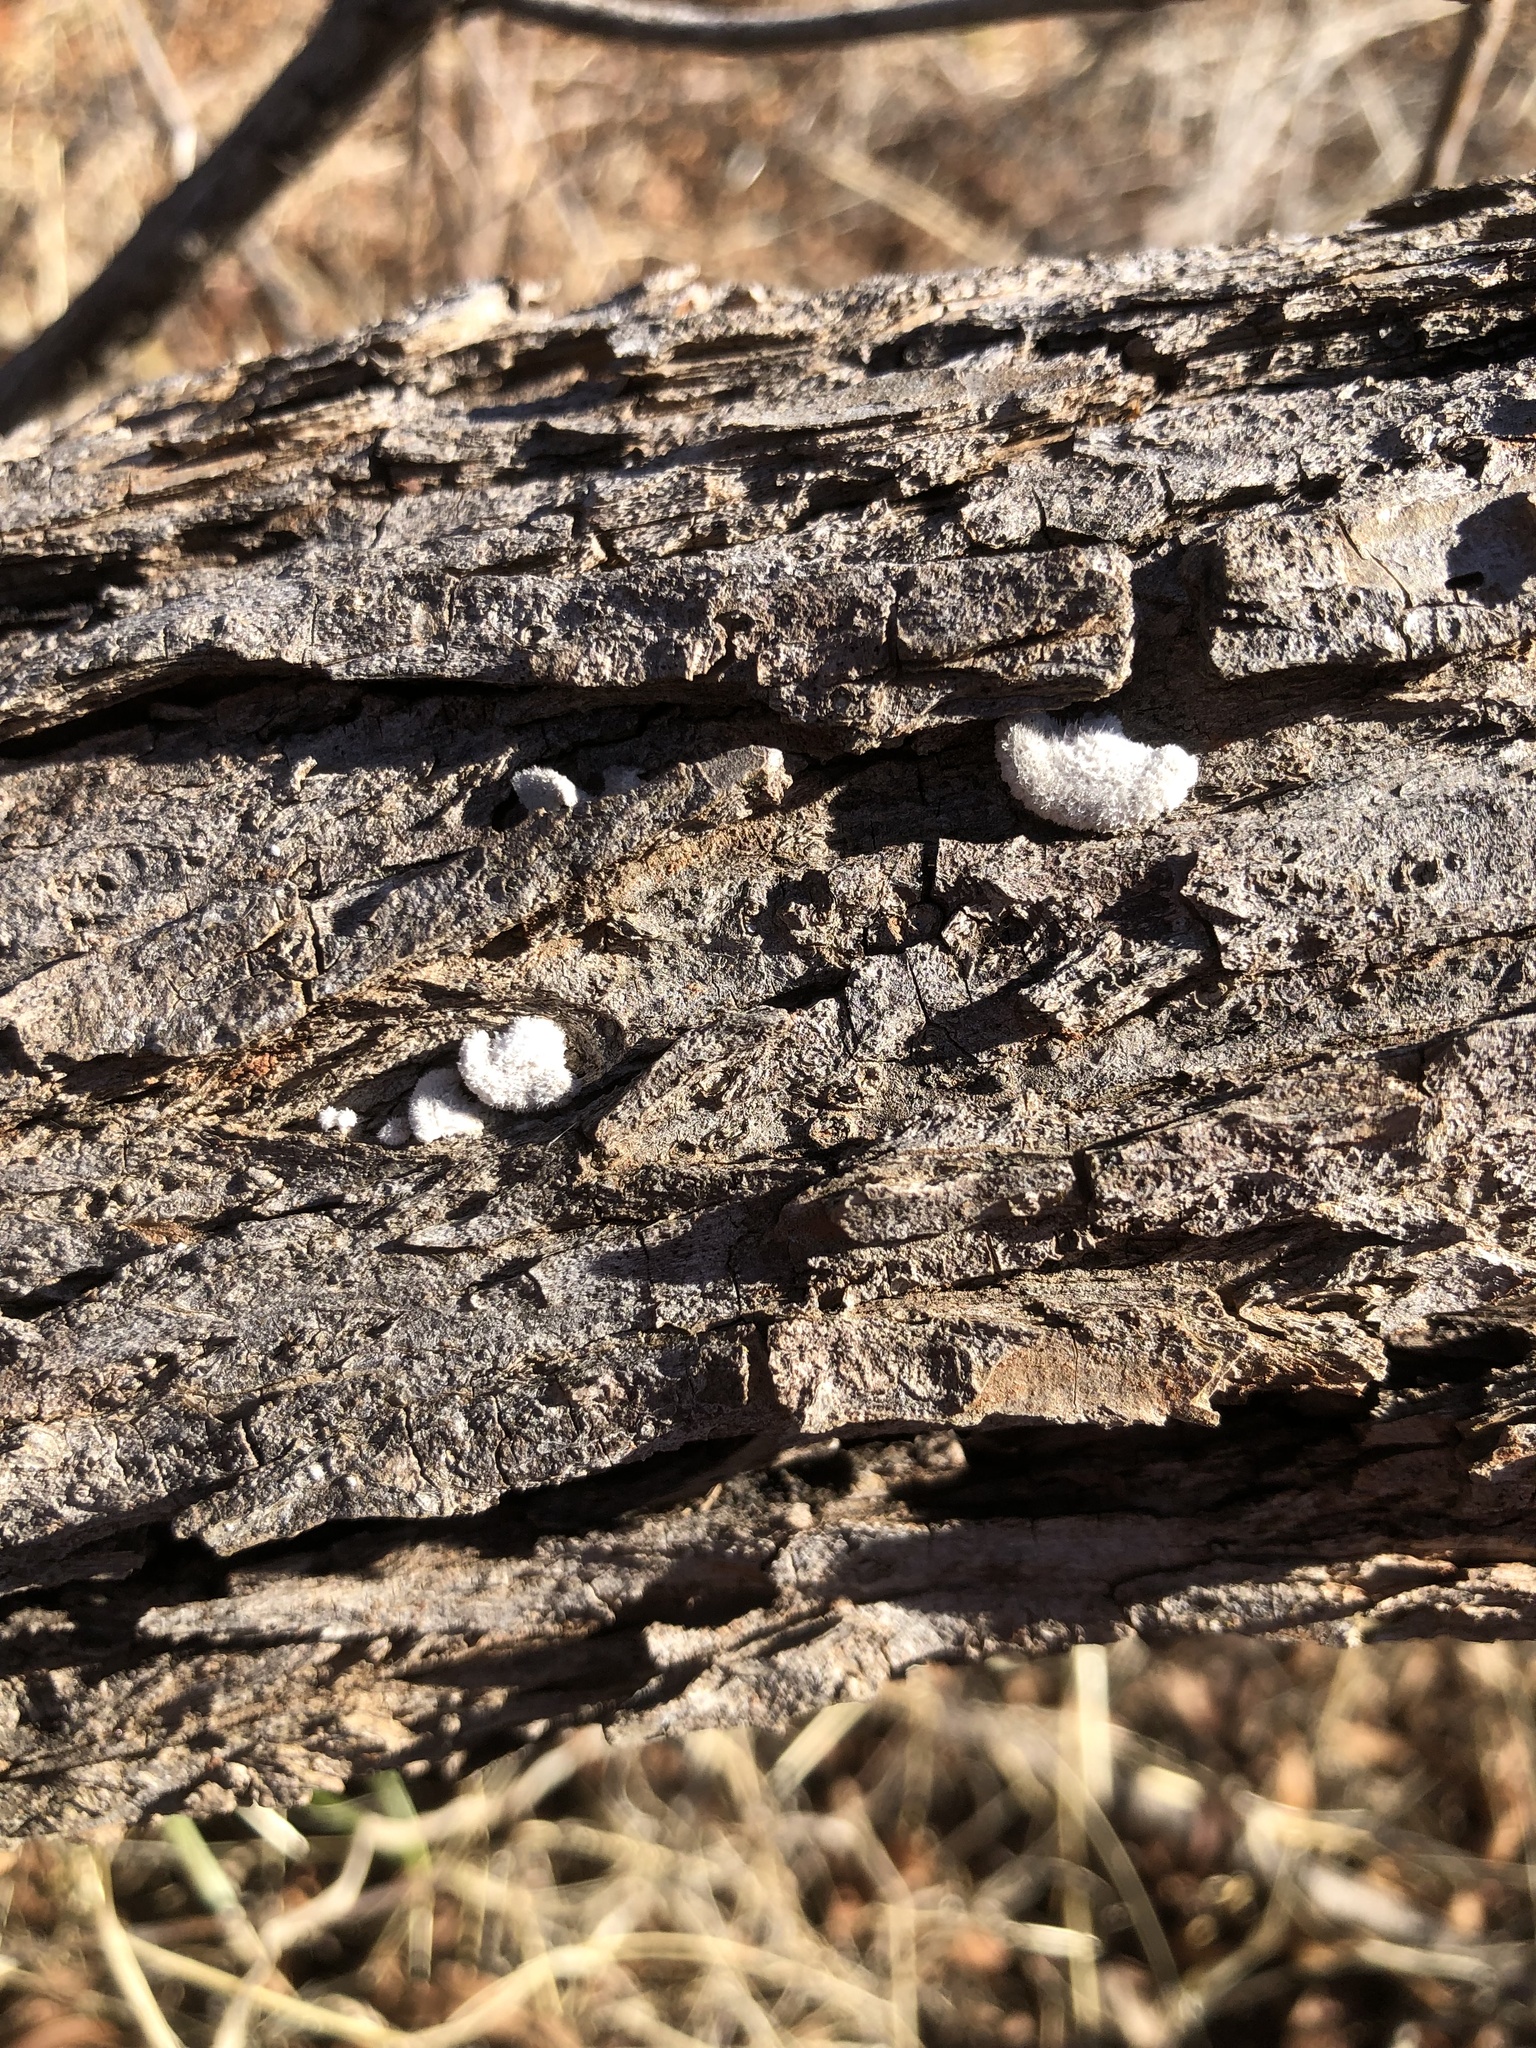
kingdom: Fungi
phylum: Basidiomycota
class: Agaricomycetes
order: Agaricales
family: Schizophyllaceae
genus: Schizophyllum
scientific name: Schizophyllum commune
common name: Common porecrust
